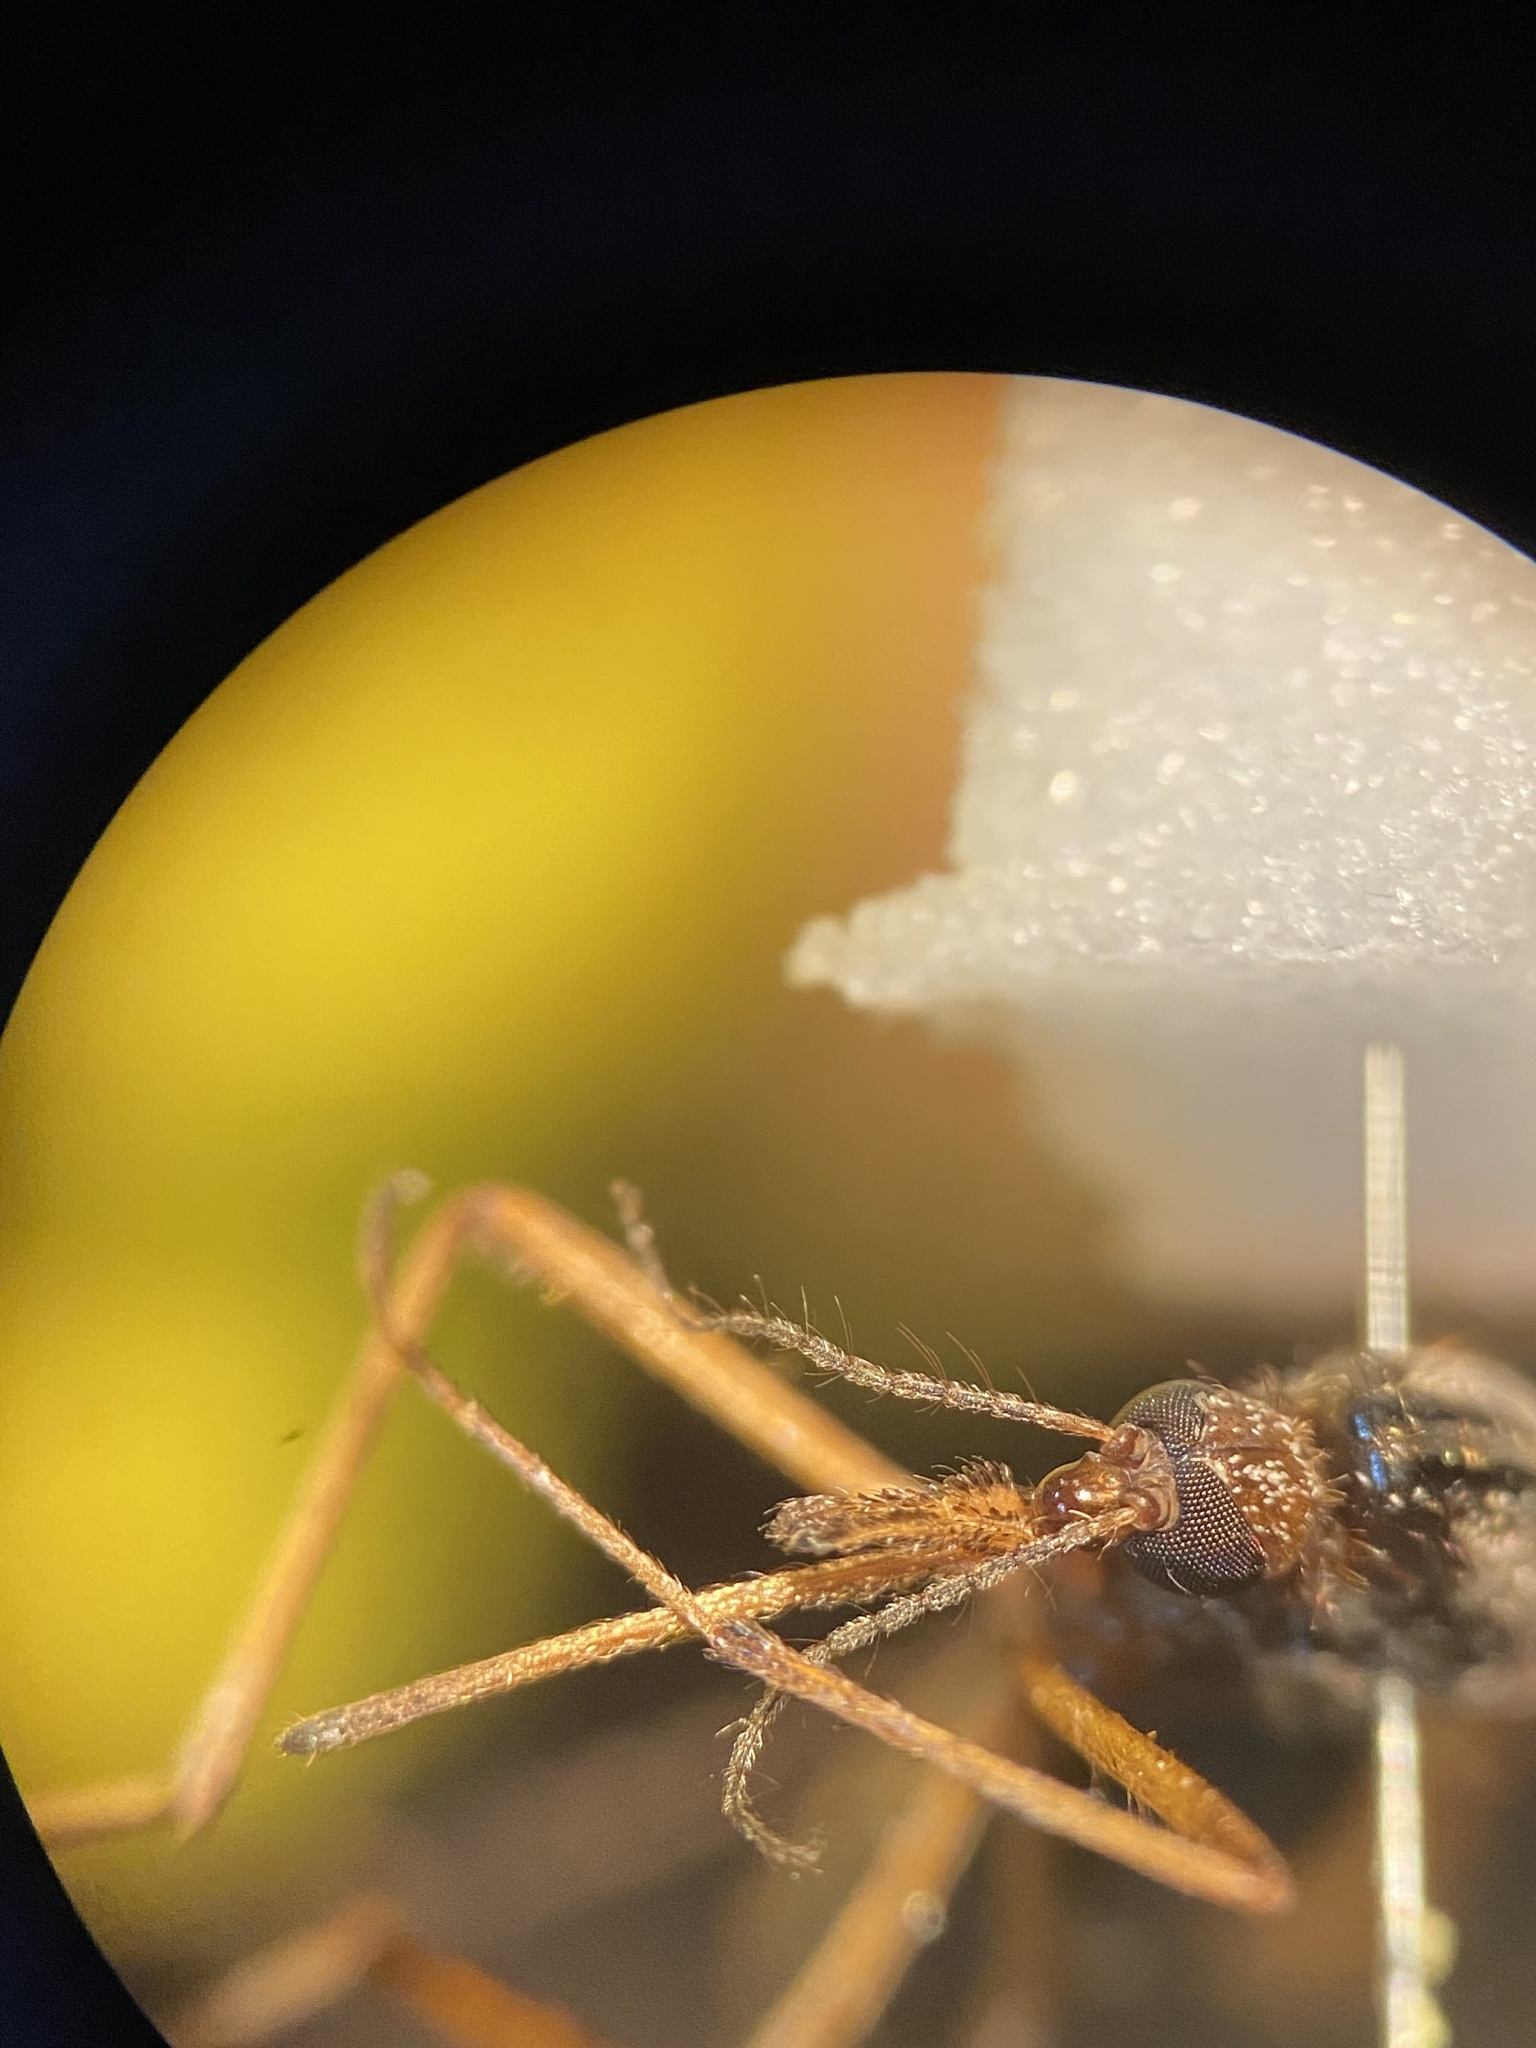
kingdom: Animalia
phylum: Arthropoda
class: Insecta
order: Diptera
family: Culicidae
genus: Psorophora
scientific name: Psorophora ciliata
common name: Gallinipper
